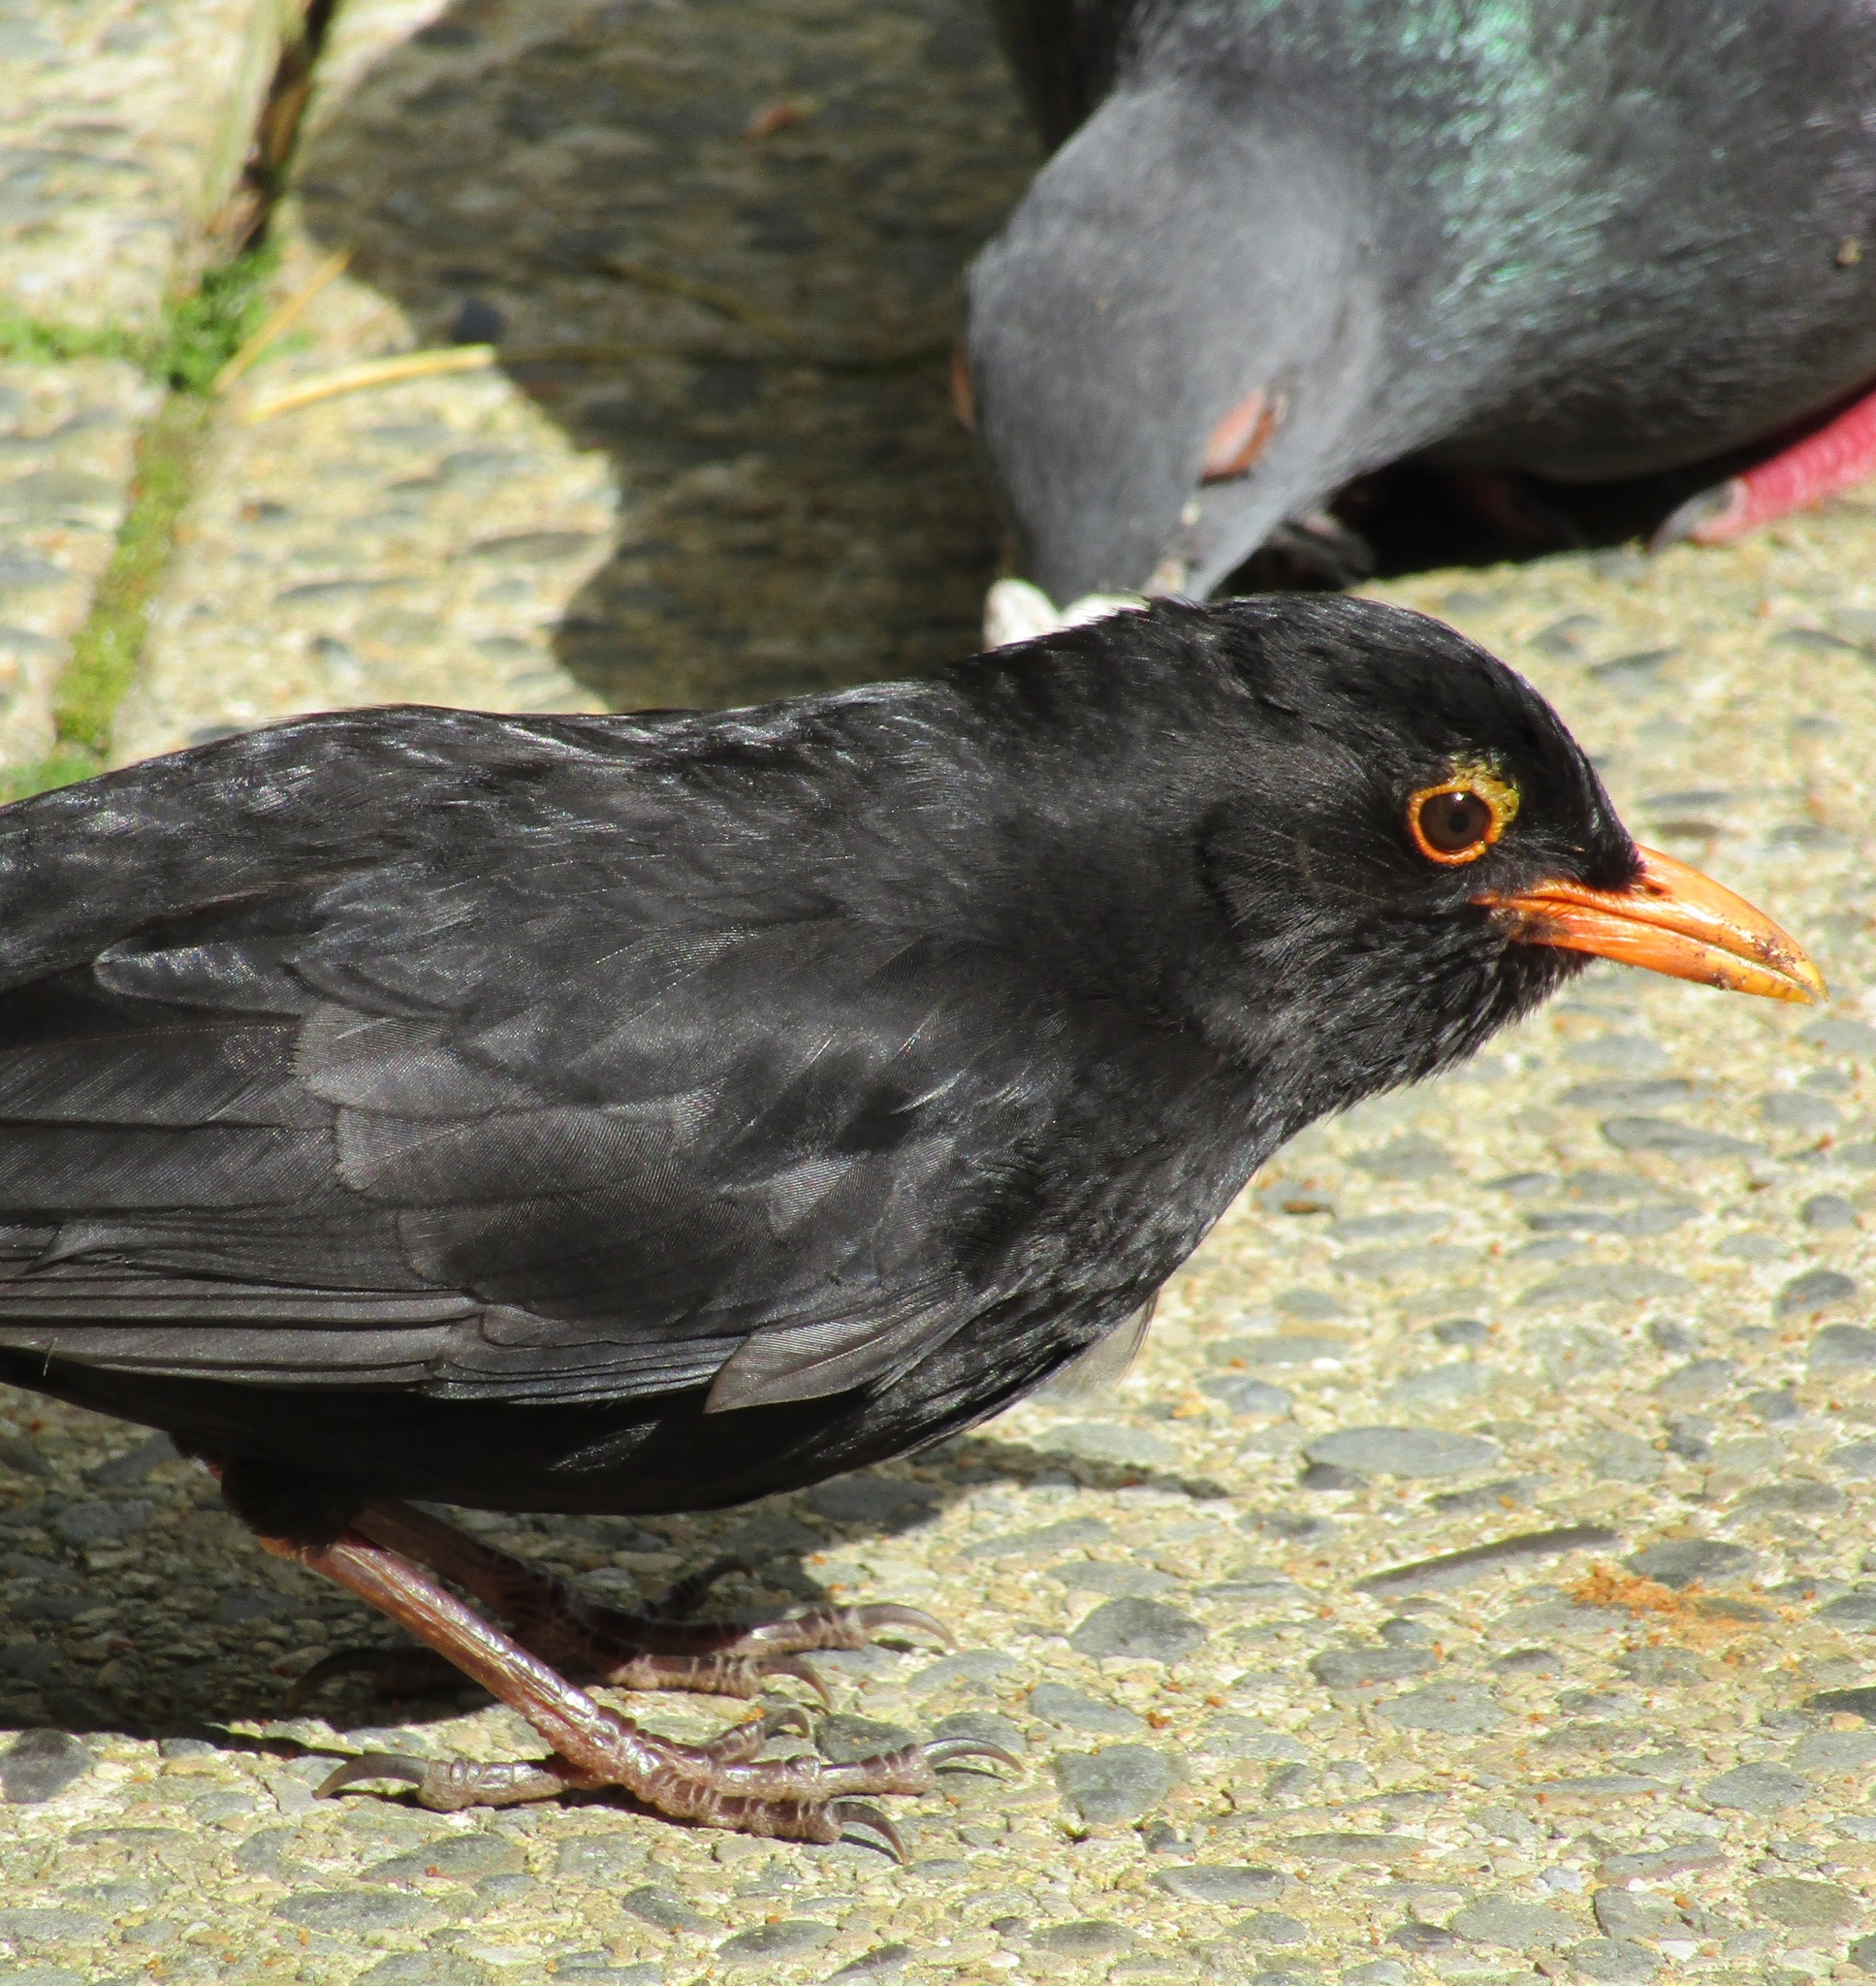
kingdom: Animalia
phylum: Chordata
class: Aves
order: Passeriformes
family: Turdidae
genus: Turdus
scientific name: Turdus merula
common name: Common blackbird
